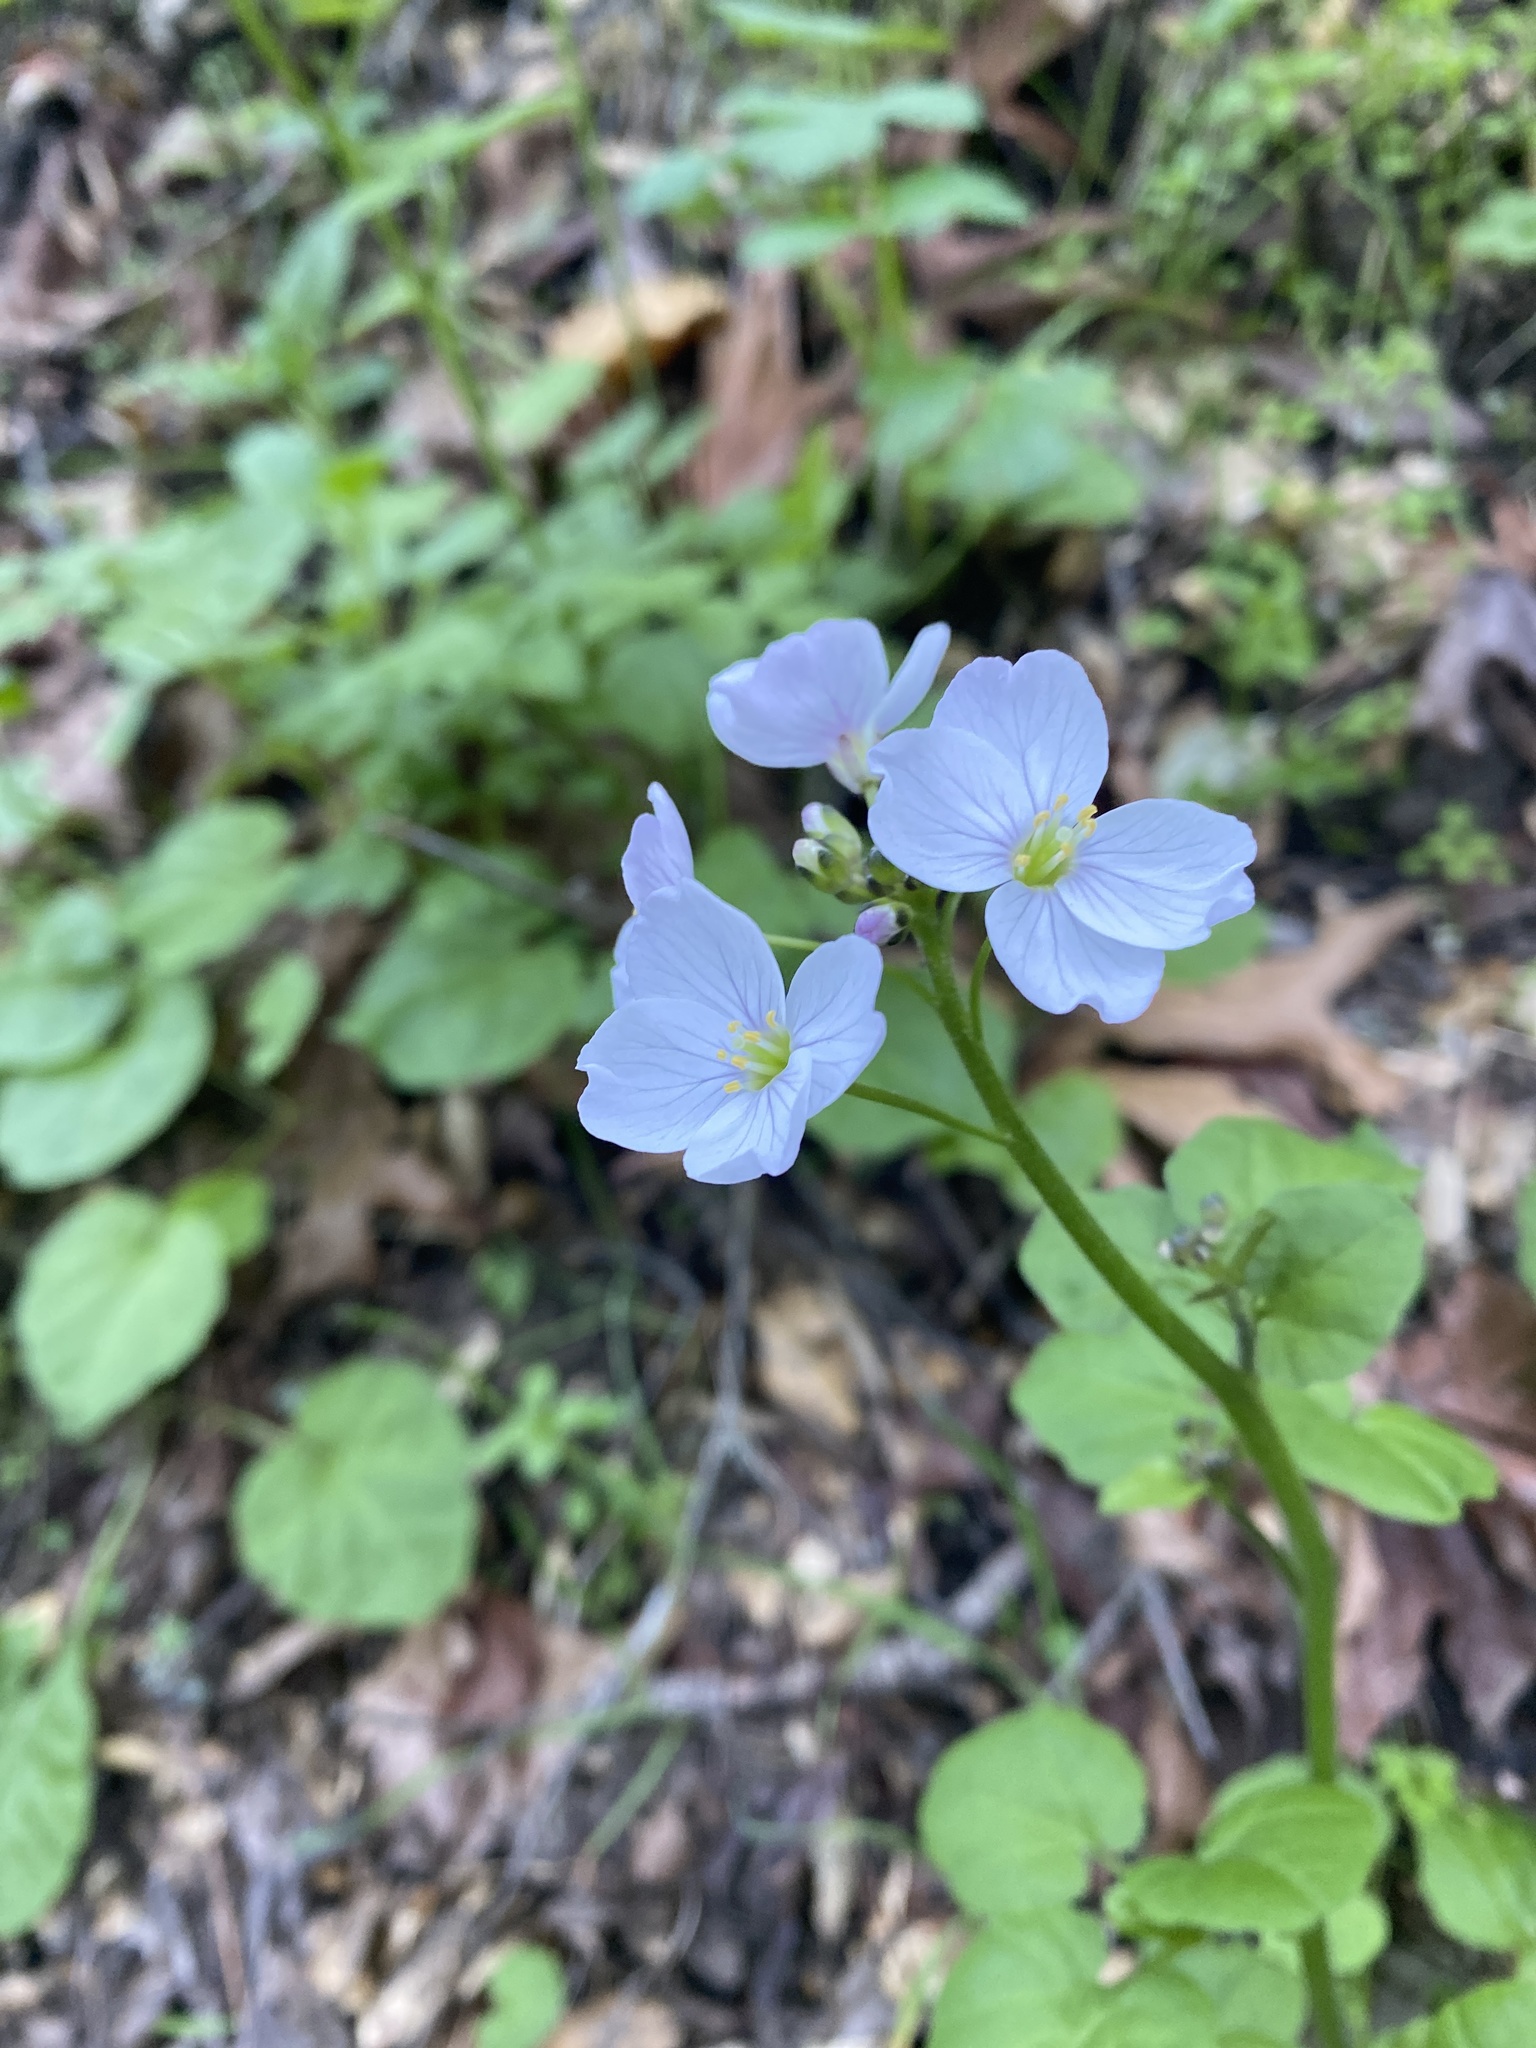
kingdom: Plantae
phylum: Tracheophyta
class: Magnoliopsida
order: Brassicales
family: Brassicaceae
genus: Cardamine
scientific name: Cardamine californica
